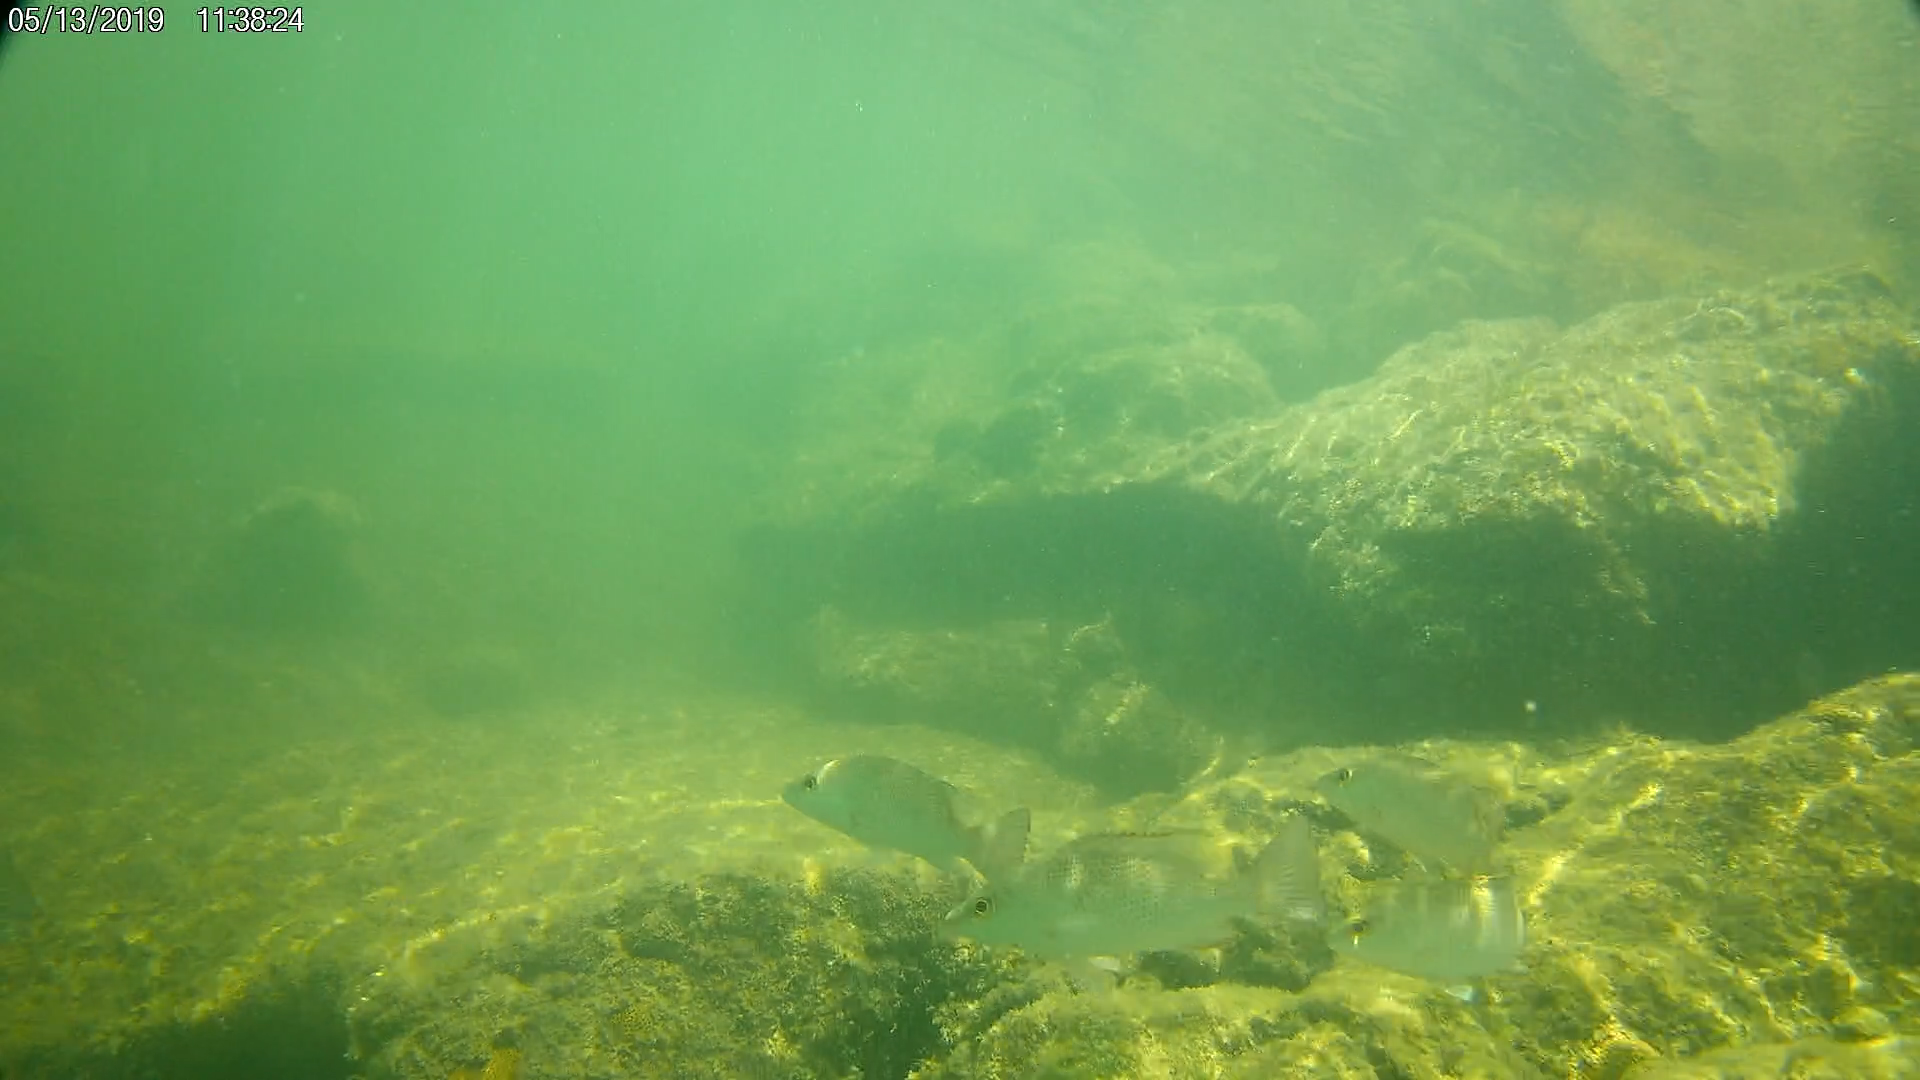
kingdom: Animalia
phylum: Chordata
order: Perciformes
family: Lutjanidae
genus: Lutjanus
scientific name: Lutjanus griseus
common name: Gray snapper
